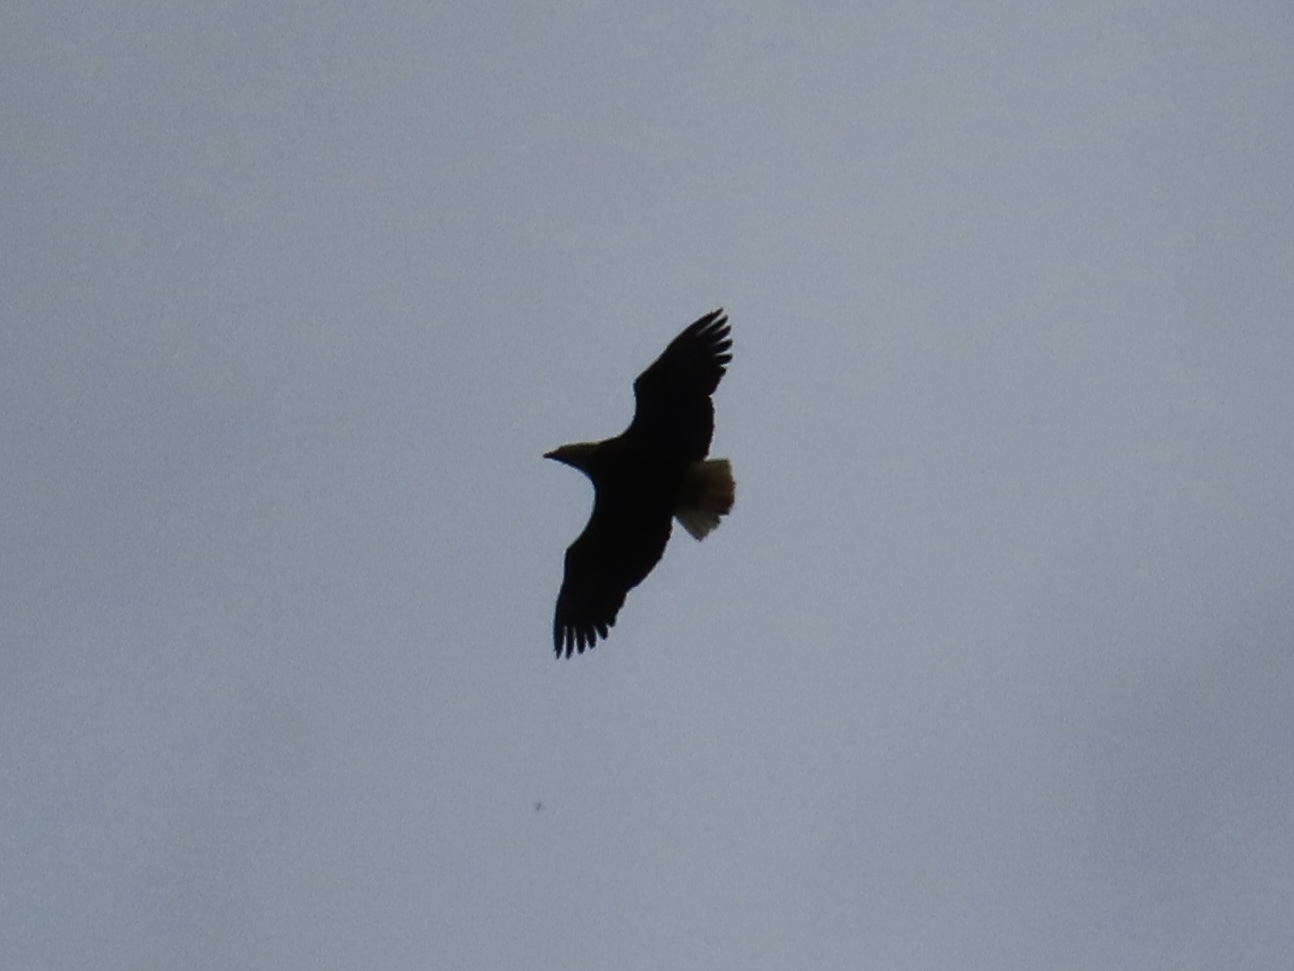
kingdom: Animalia
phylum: Chordata
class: Aves
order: Accipitriformes
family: Accipitridae
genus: Haliaeetus
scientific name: Haliaeetus leucocephalus
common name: Bald eagle
